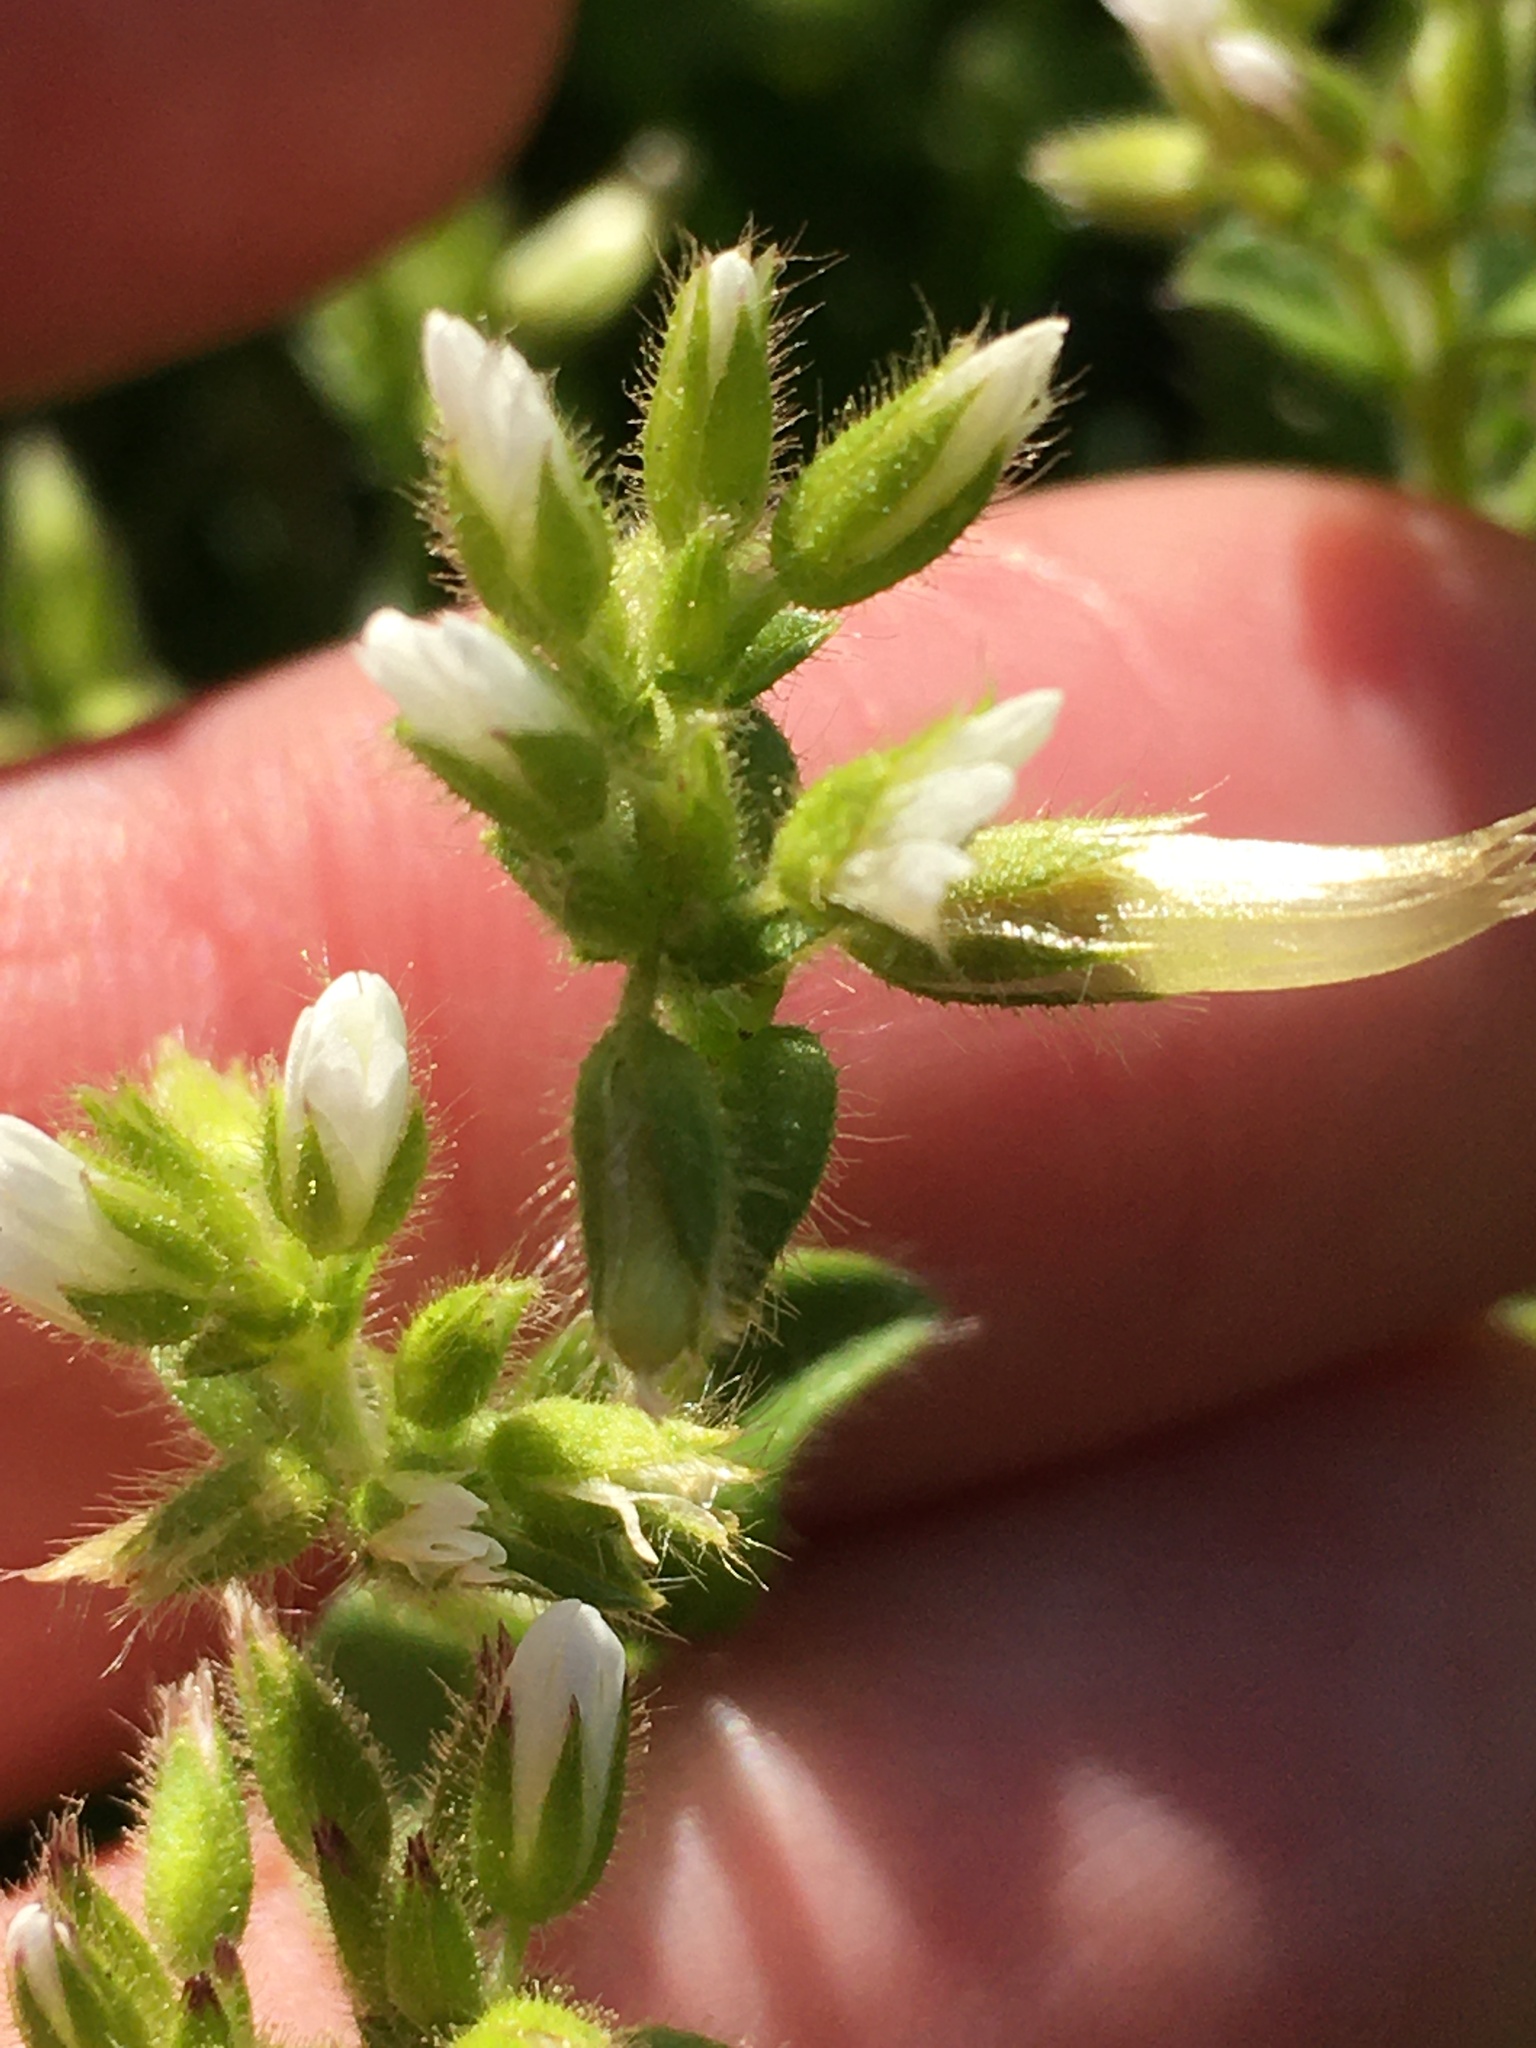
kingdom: Plantae
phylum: Tracheophyta
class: Magnoliopsida
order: Caryophyllales
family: Caryophyllaceae
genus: Cerastium
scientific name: Cerastium glomeratum
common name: Sticky chickweed
